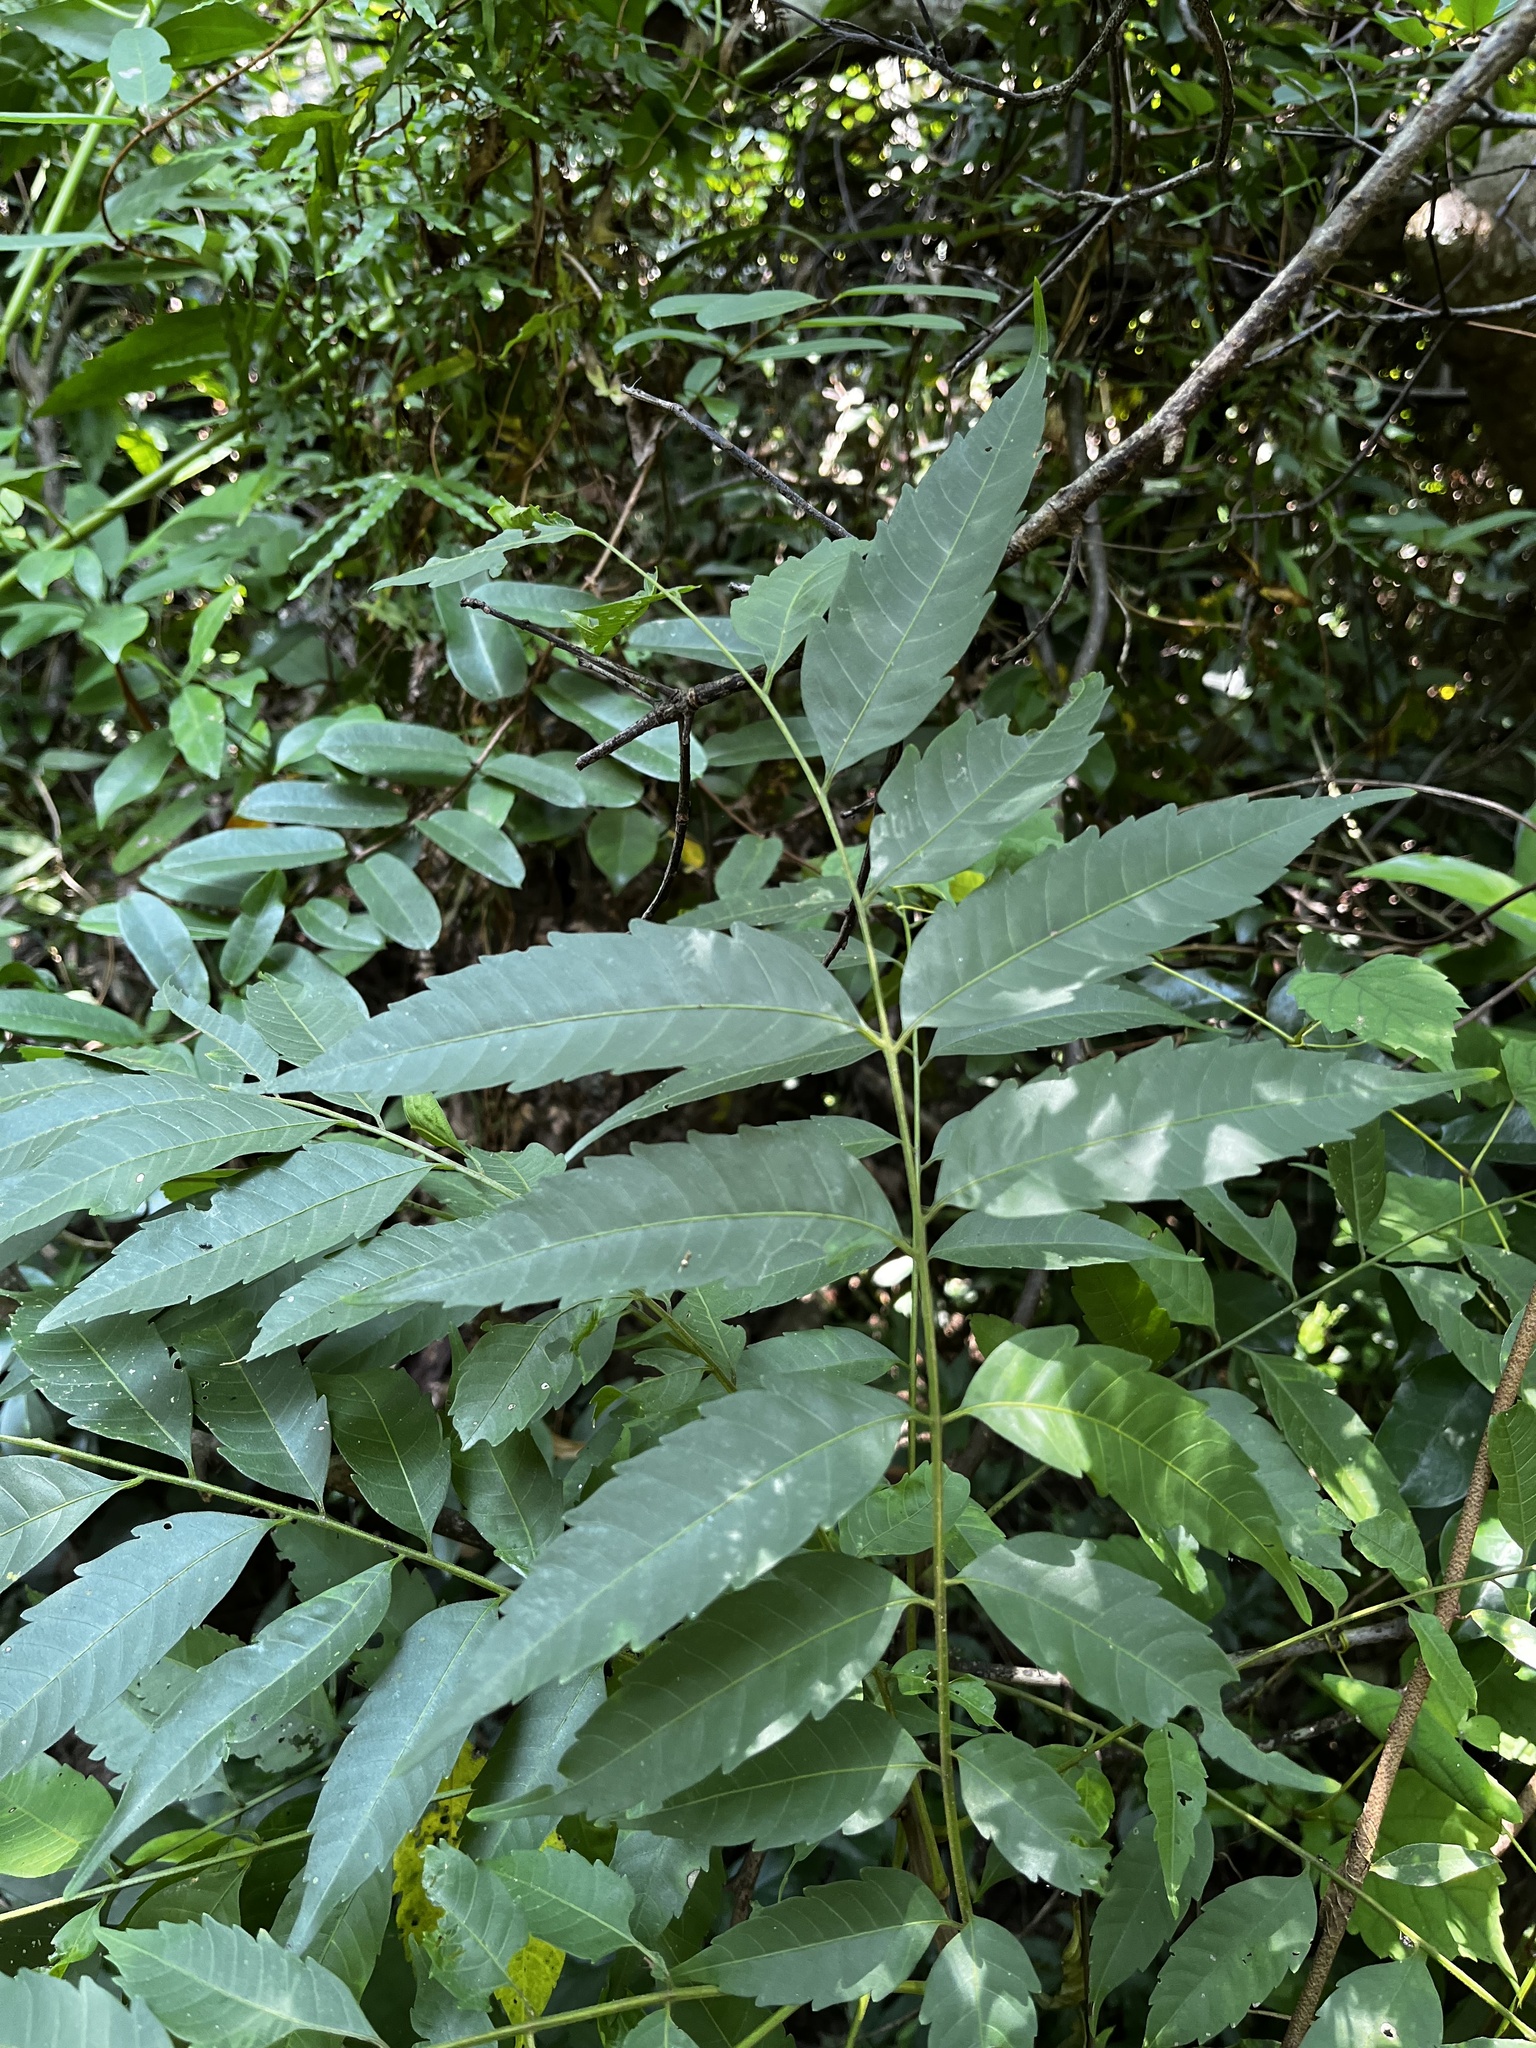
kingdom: Plantae
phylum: Tracheophyta
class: Magnoliopsida
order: Sapindales
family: Sapindaceae
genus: Eurycorymbus
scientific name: Eurycorymbus cavaleriei
